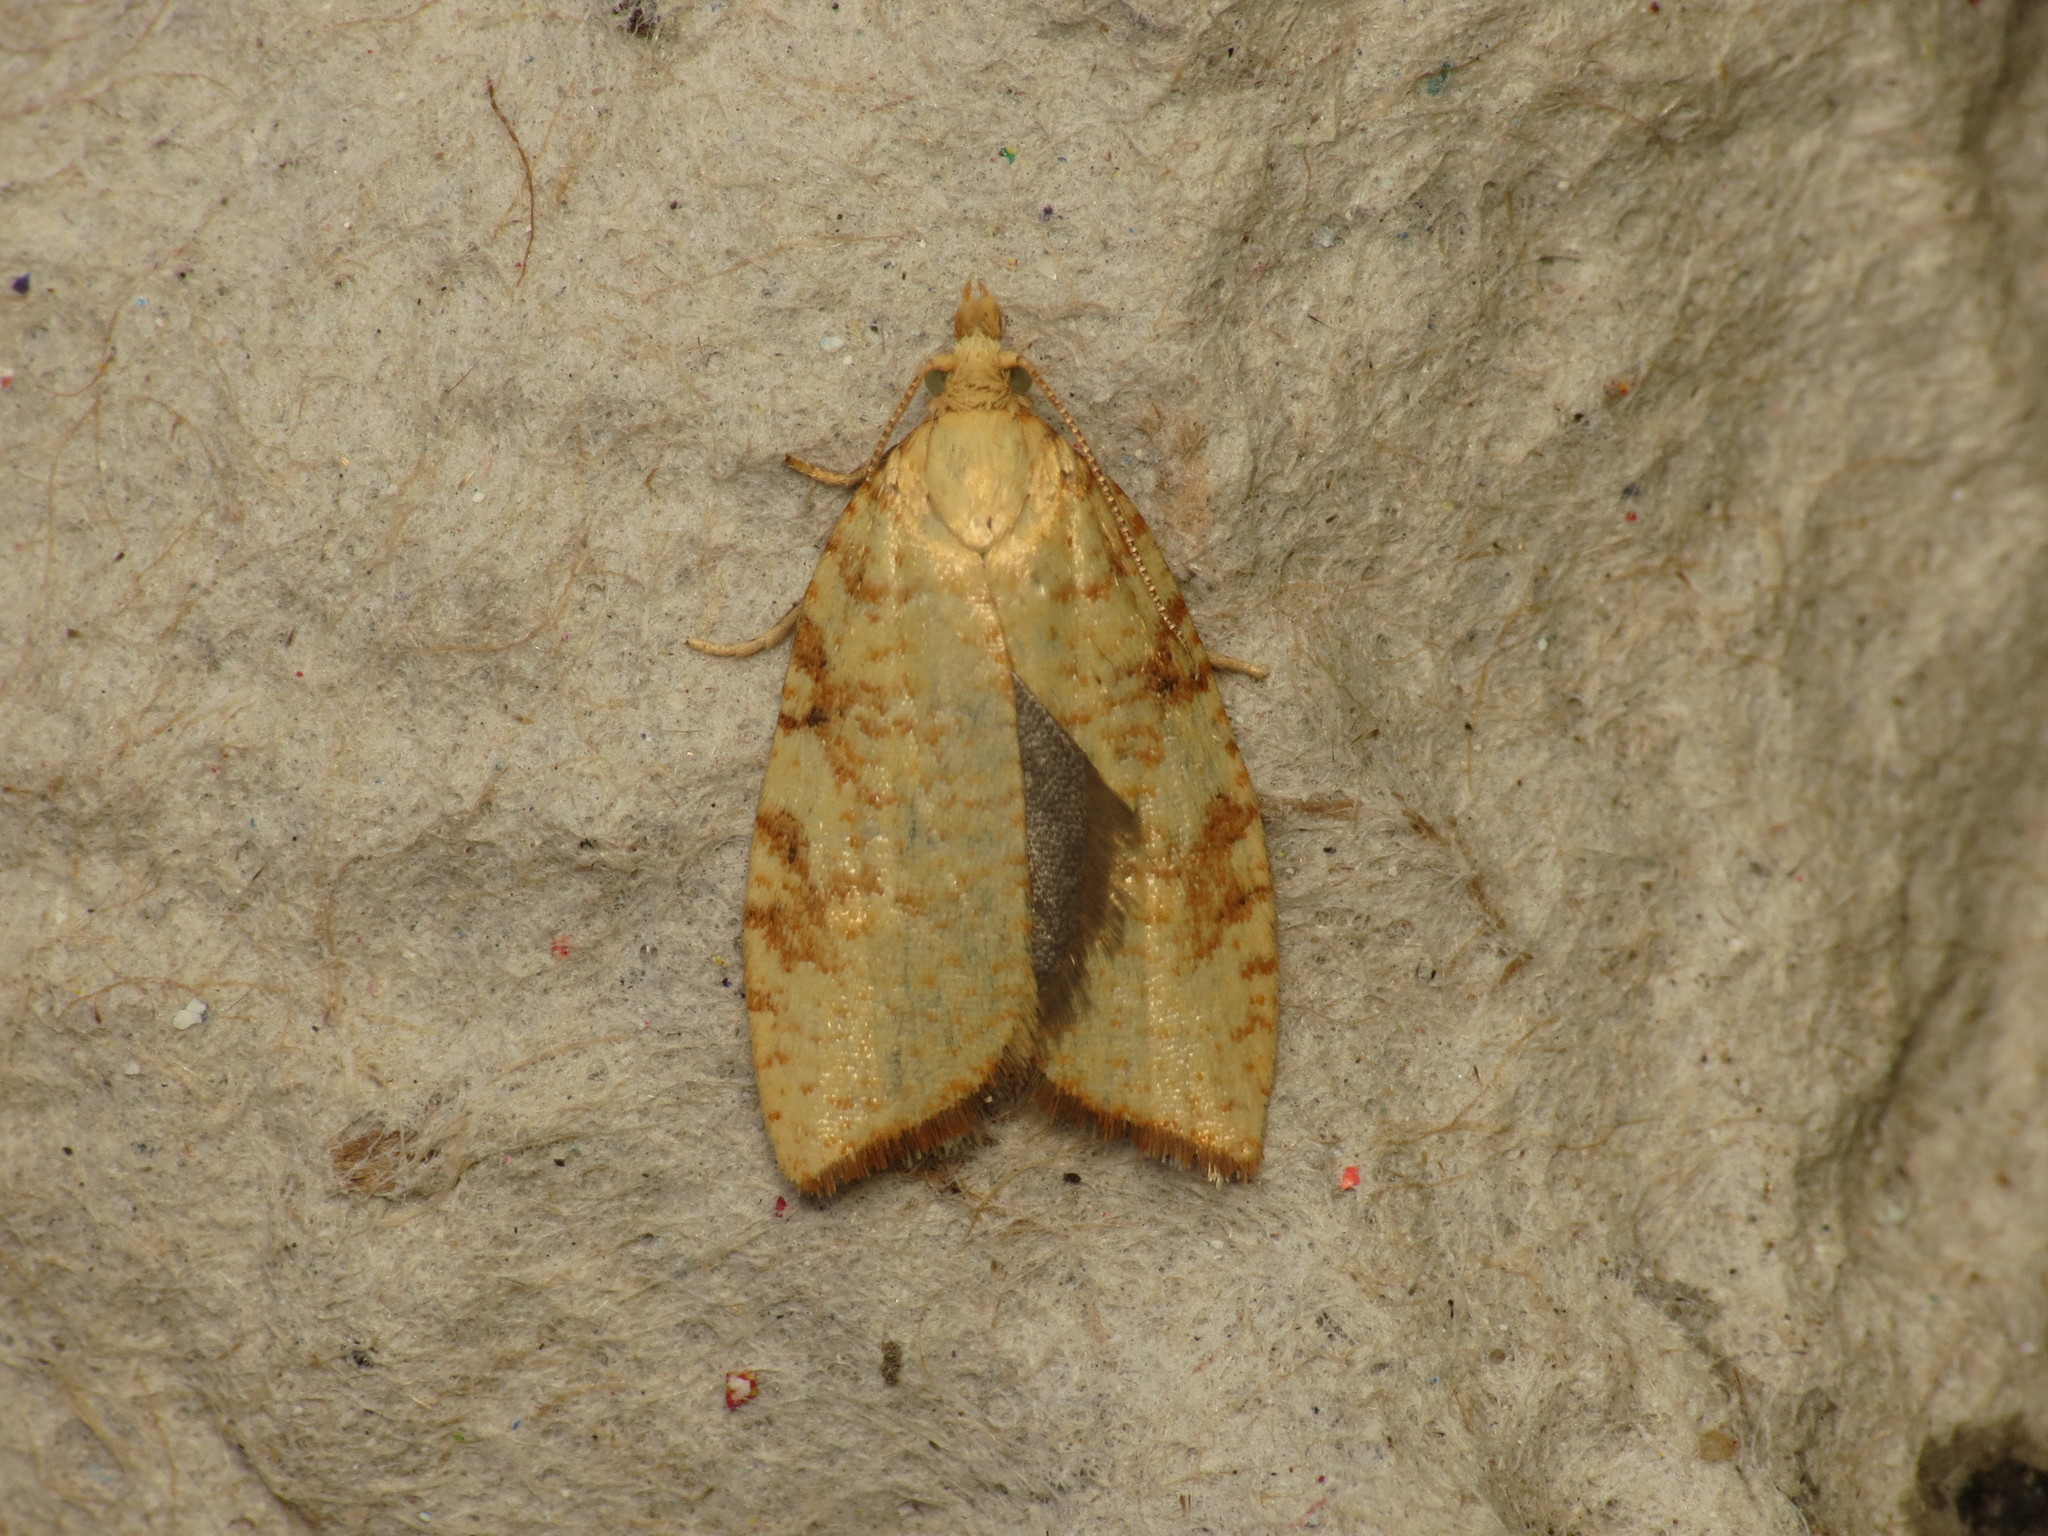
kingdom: Animalia
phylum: Arthropoda
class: Insecta
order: Lepidoptera
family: Tortricidae
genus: Aleimma
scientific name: Aleimma loeflingiana
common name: Yellow oak button
